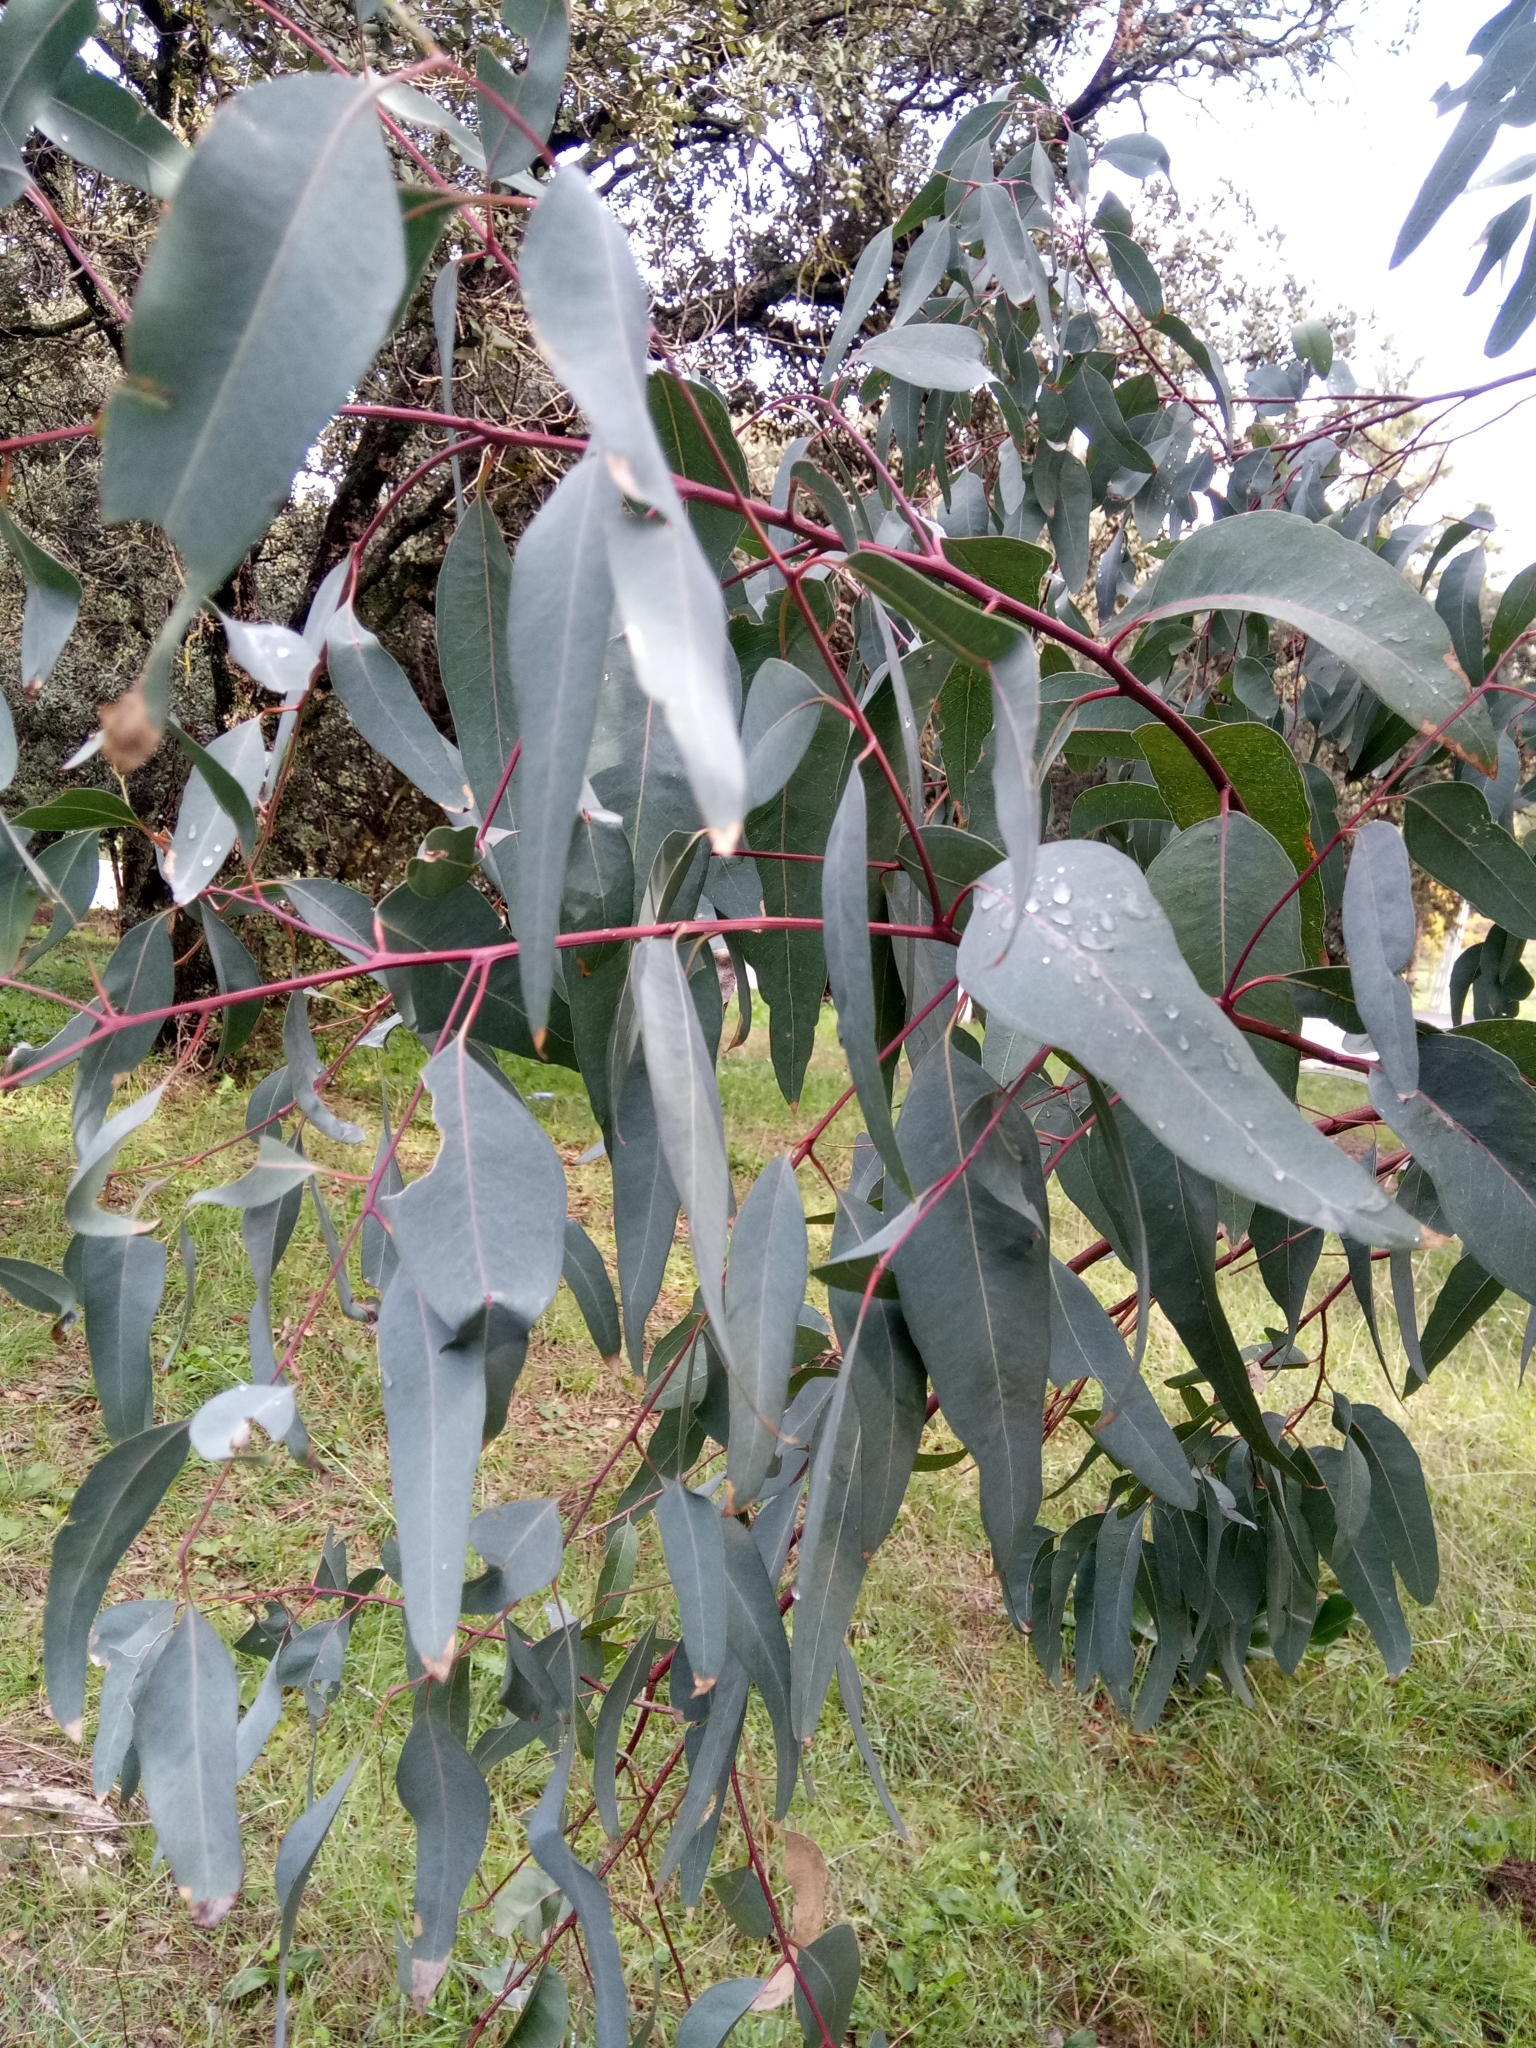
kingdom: Plantae
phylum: Tracheophyta
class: Magnoliopsida
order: Myrtales
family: Myrtaceae
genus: Eucalyptus
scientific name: Eucalyptus globulus
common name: Southern blue-gum
